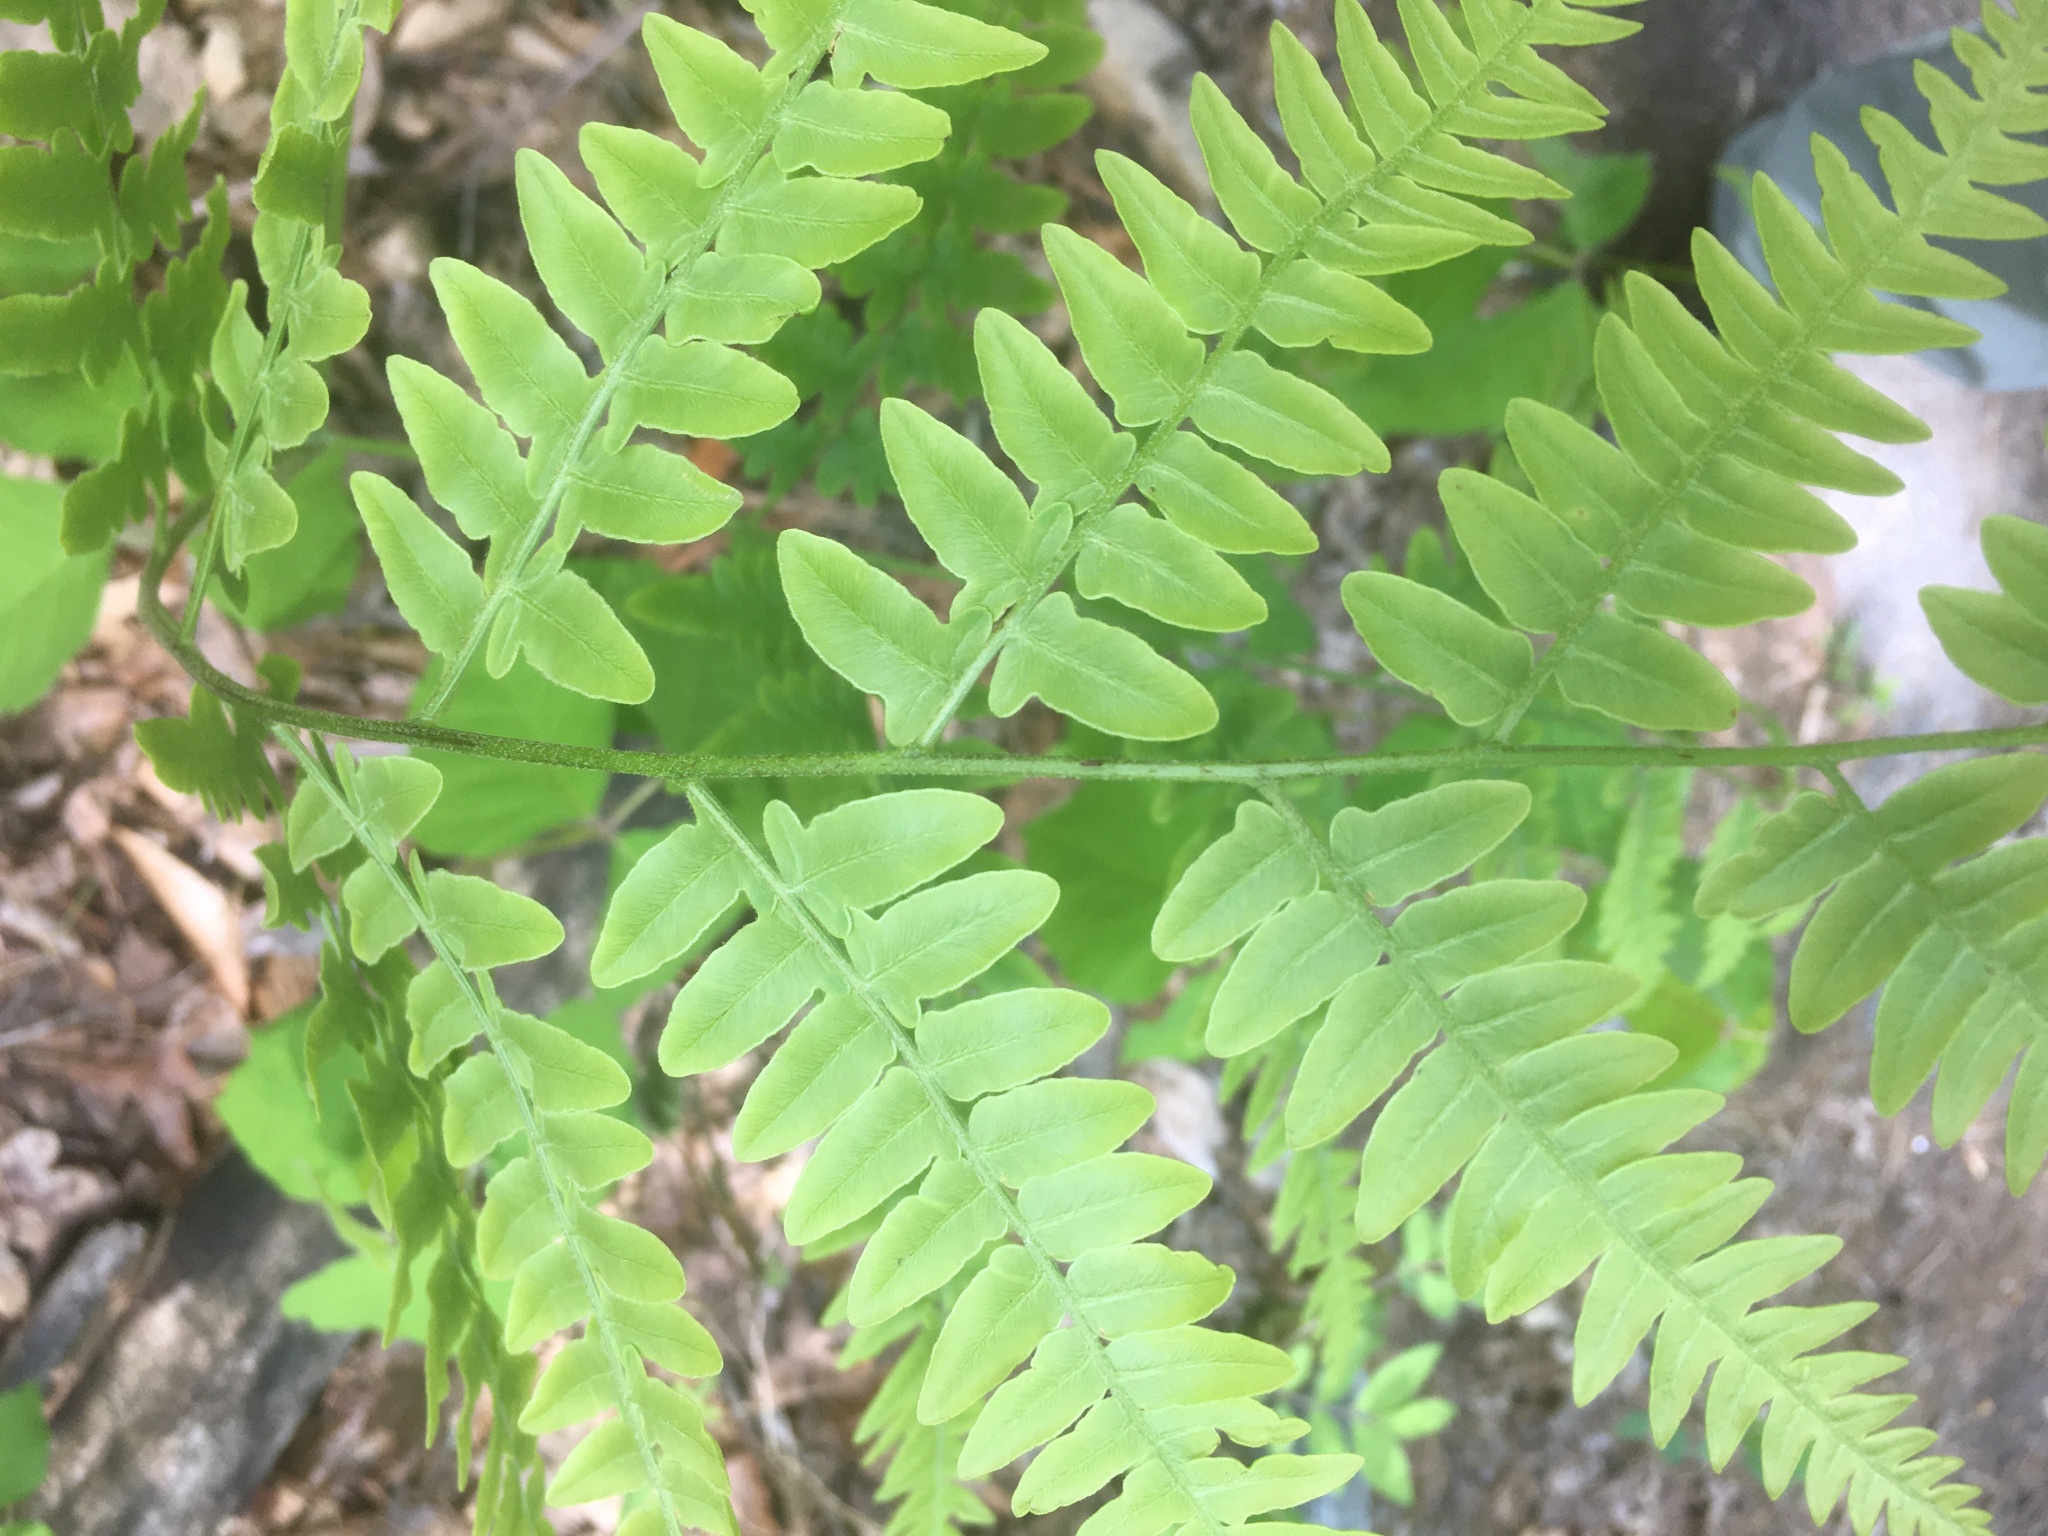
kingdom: Plantae
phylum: Tracheophyta
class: Polypodiopsida
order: Polypodiales
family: Dennstaedtiaceae
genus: Pteridium
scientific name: Pteridium aquilinum
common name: Bracken
